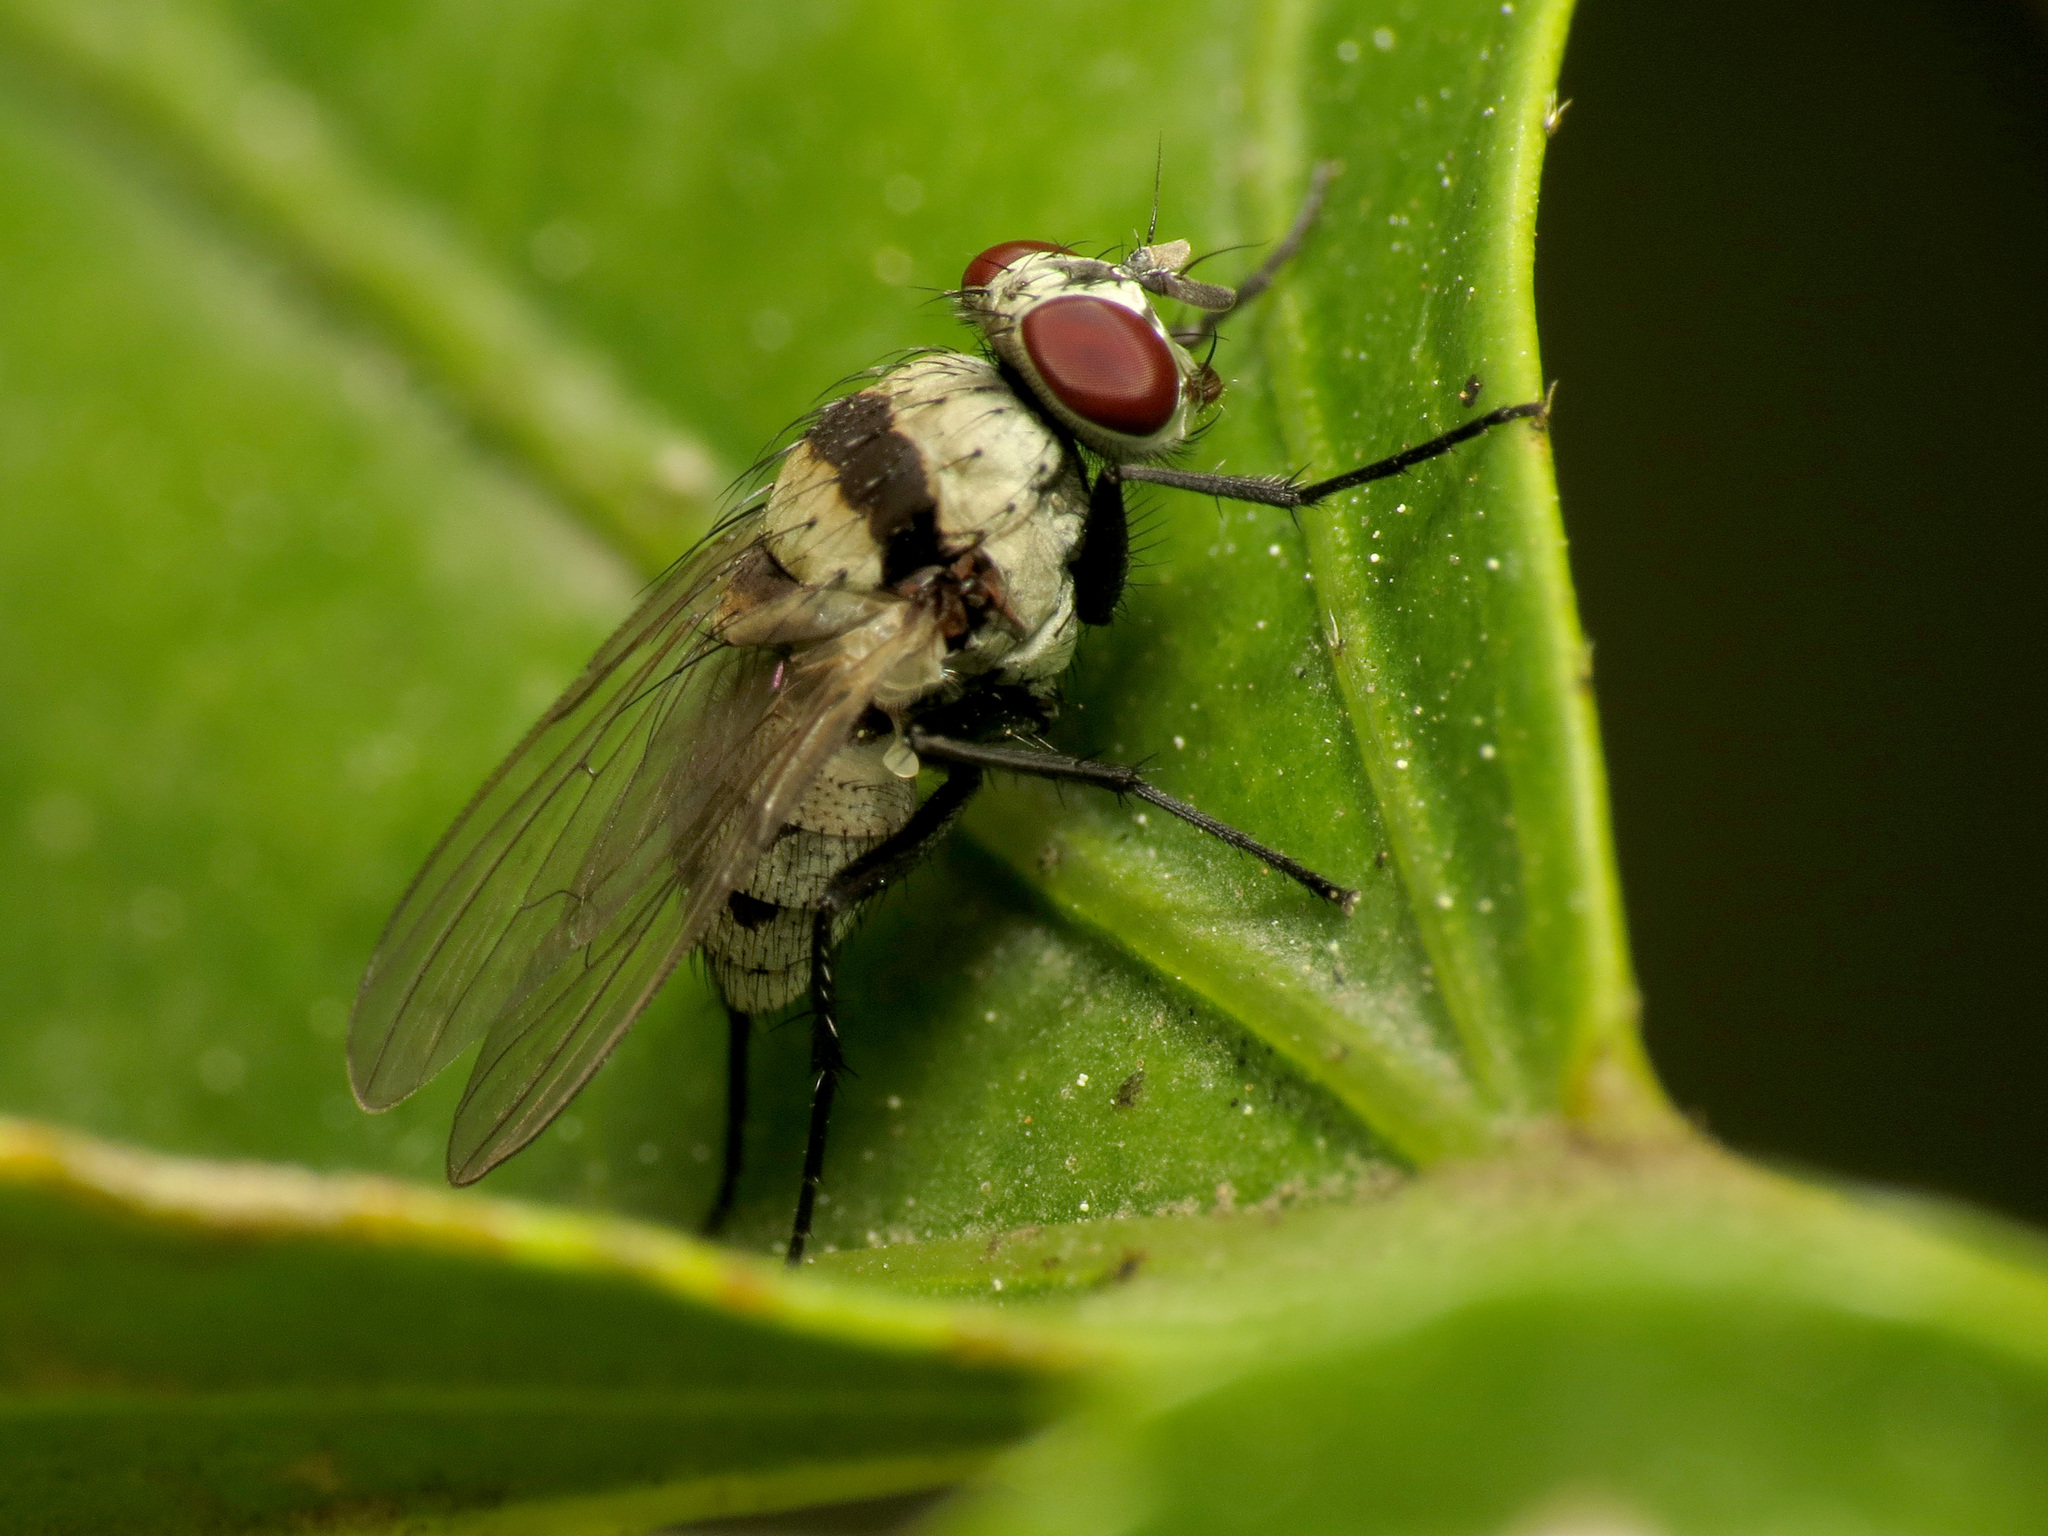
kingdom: Animalia
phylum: Arthropoda
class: Insecta
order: Diptera
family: Anthomyiidae
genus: Anthomyia
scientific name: Anthomyia illocata
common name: Fly
